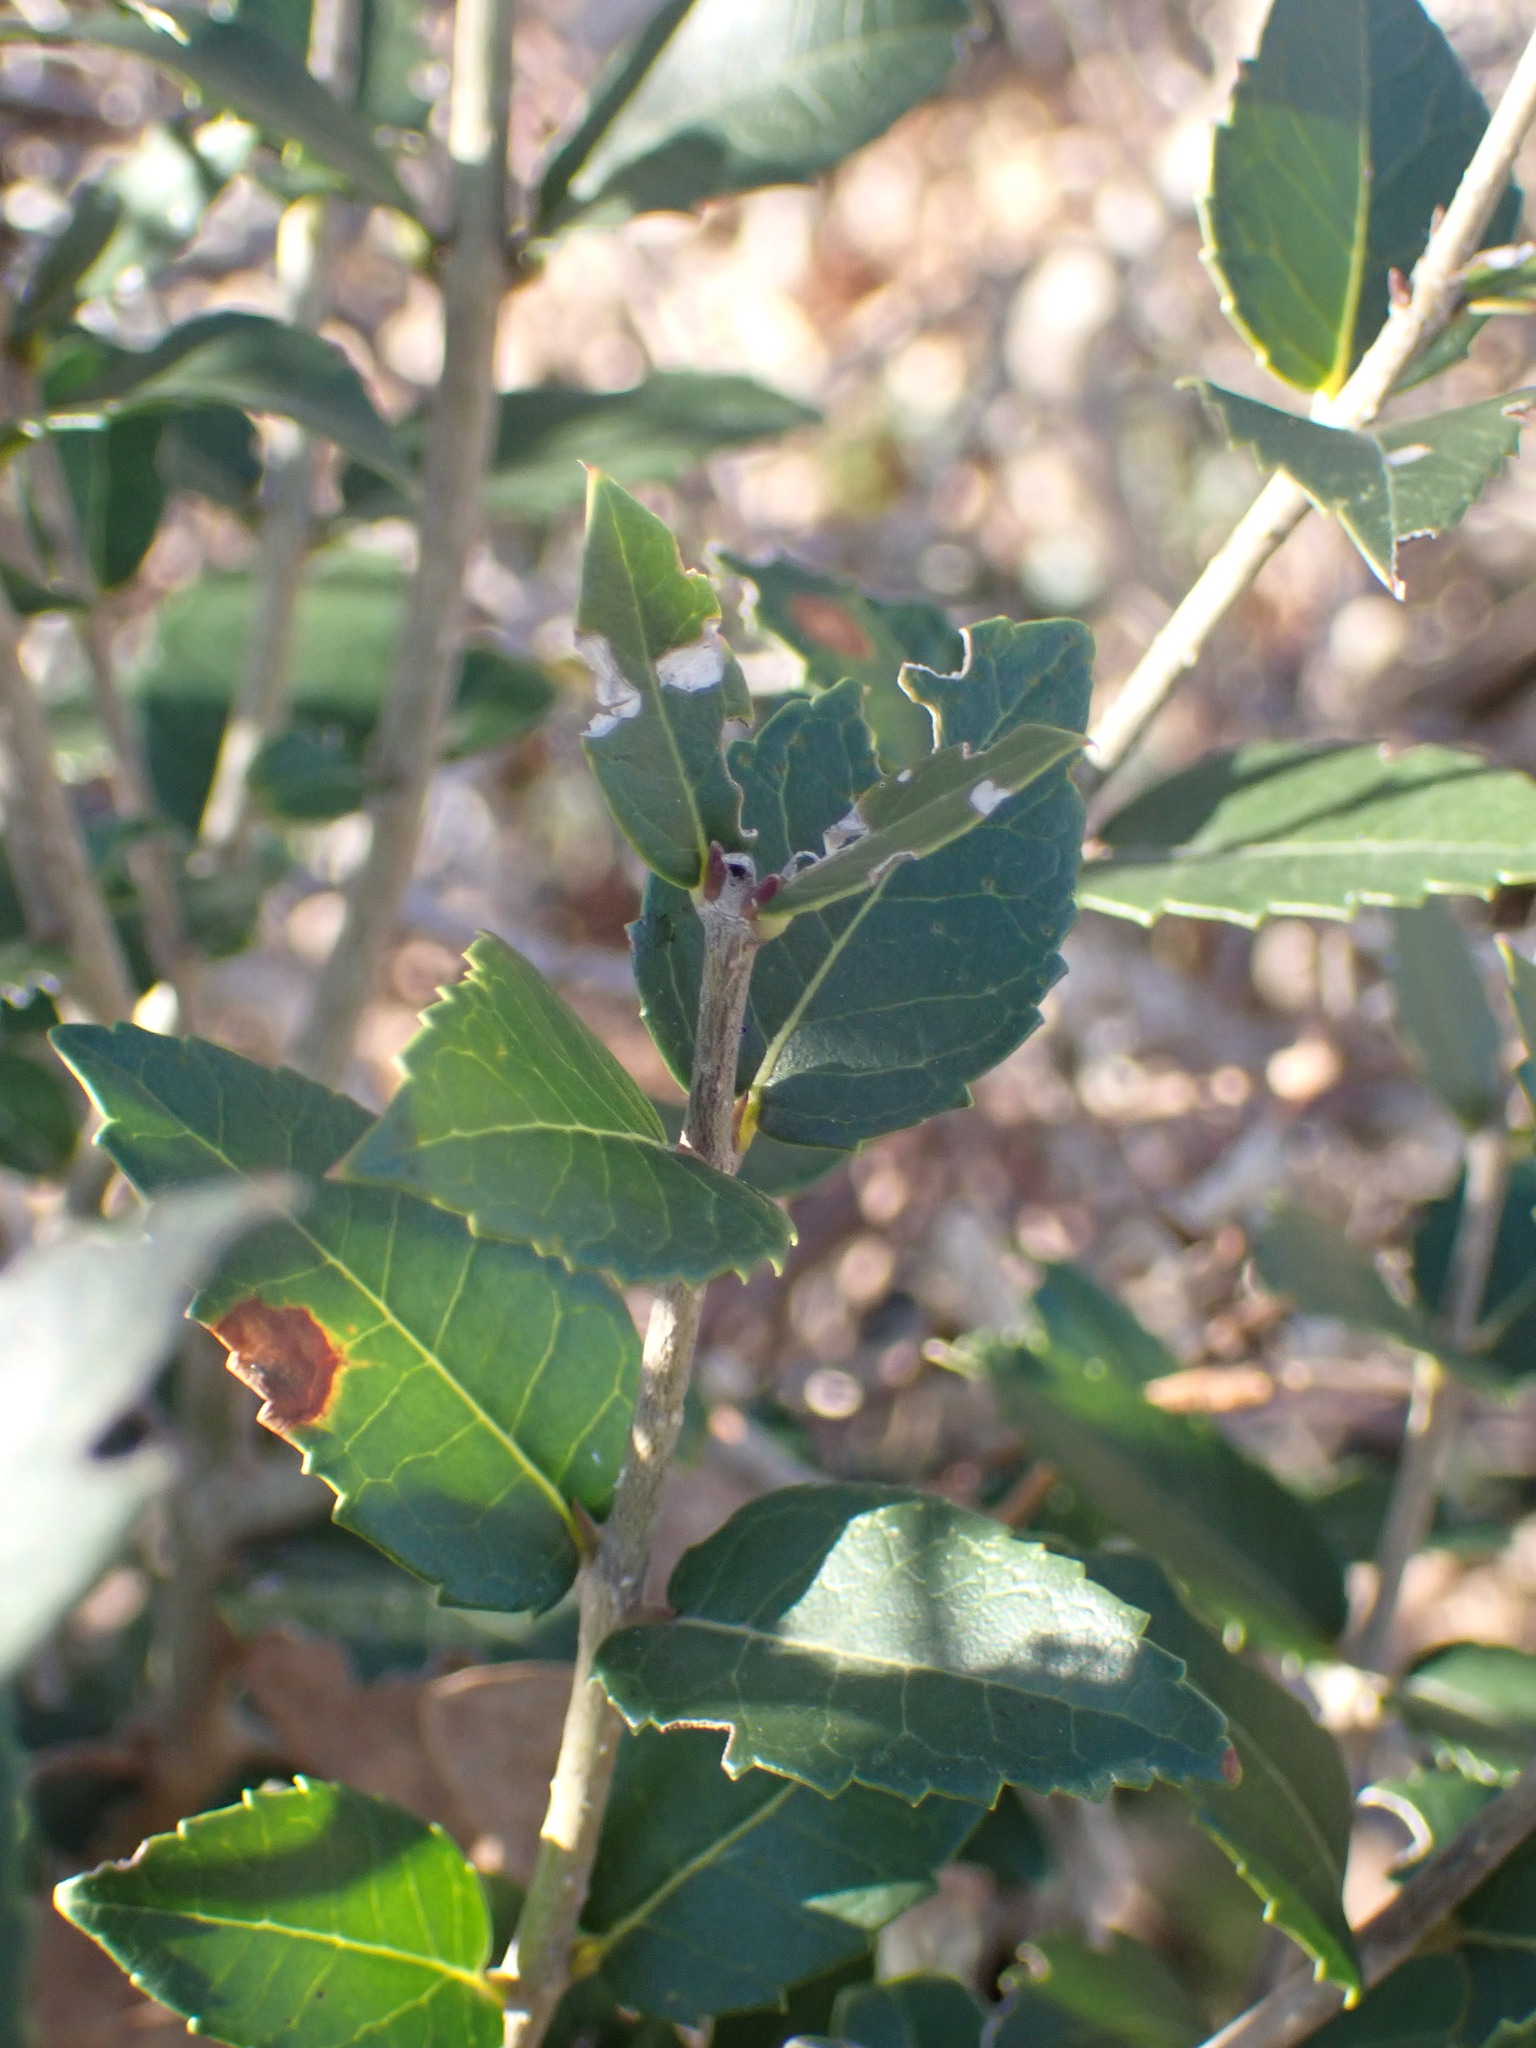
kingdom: Plantae
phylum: Tracheophyta
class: Magnoliopsida
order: Lamiales
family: Oleaceae
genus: Phillyrea
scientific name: Phillyrea latifolia
